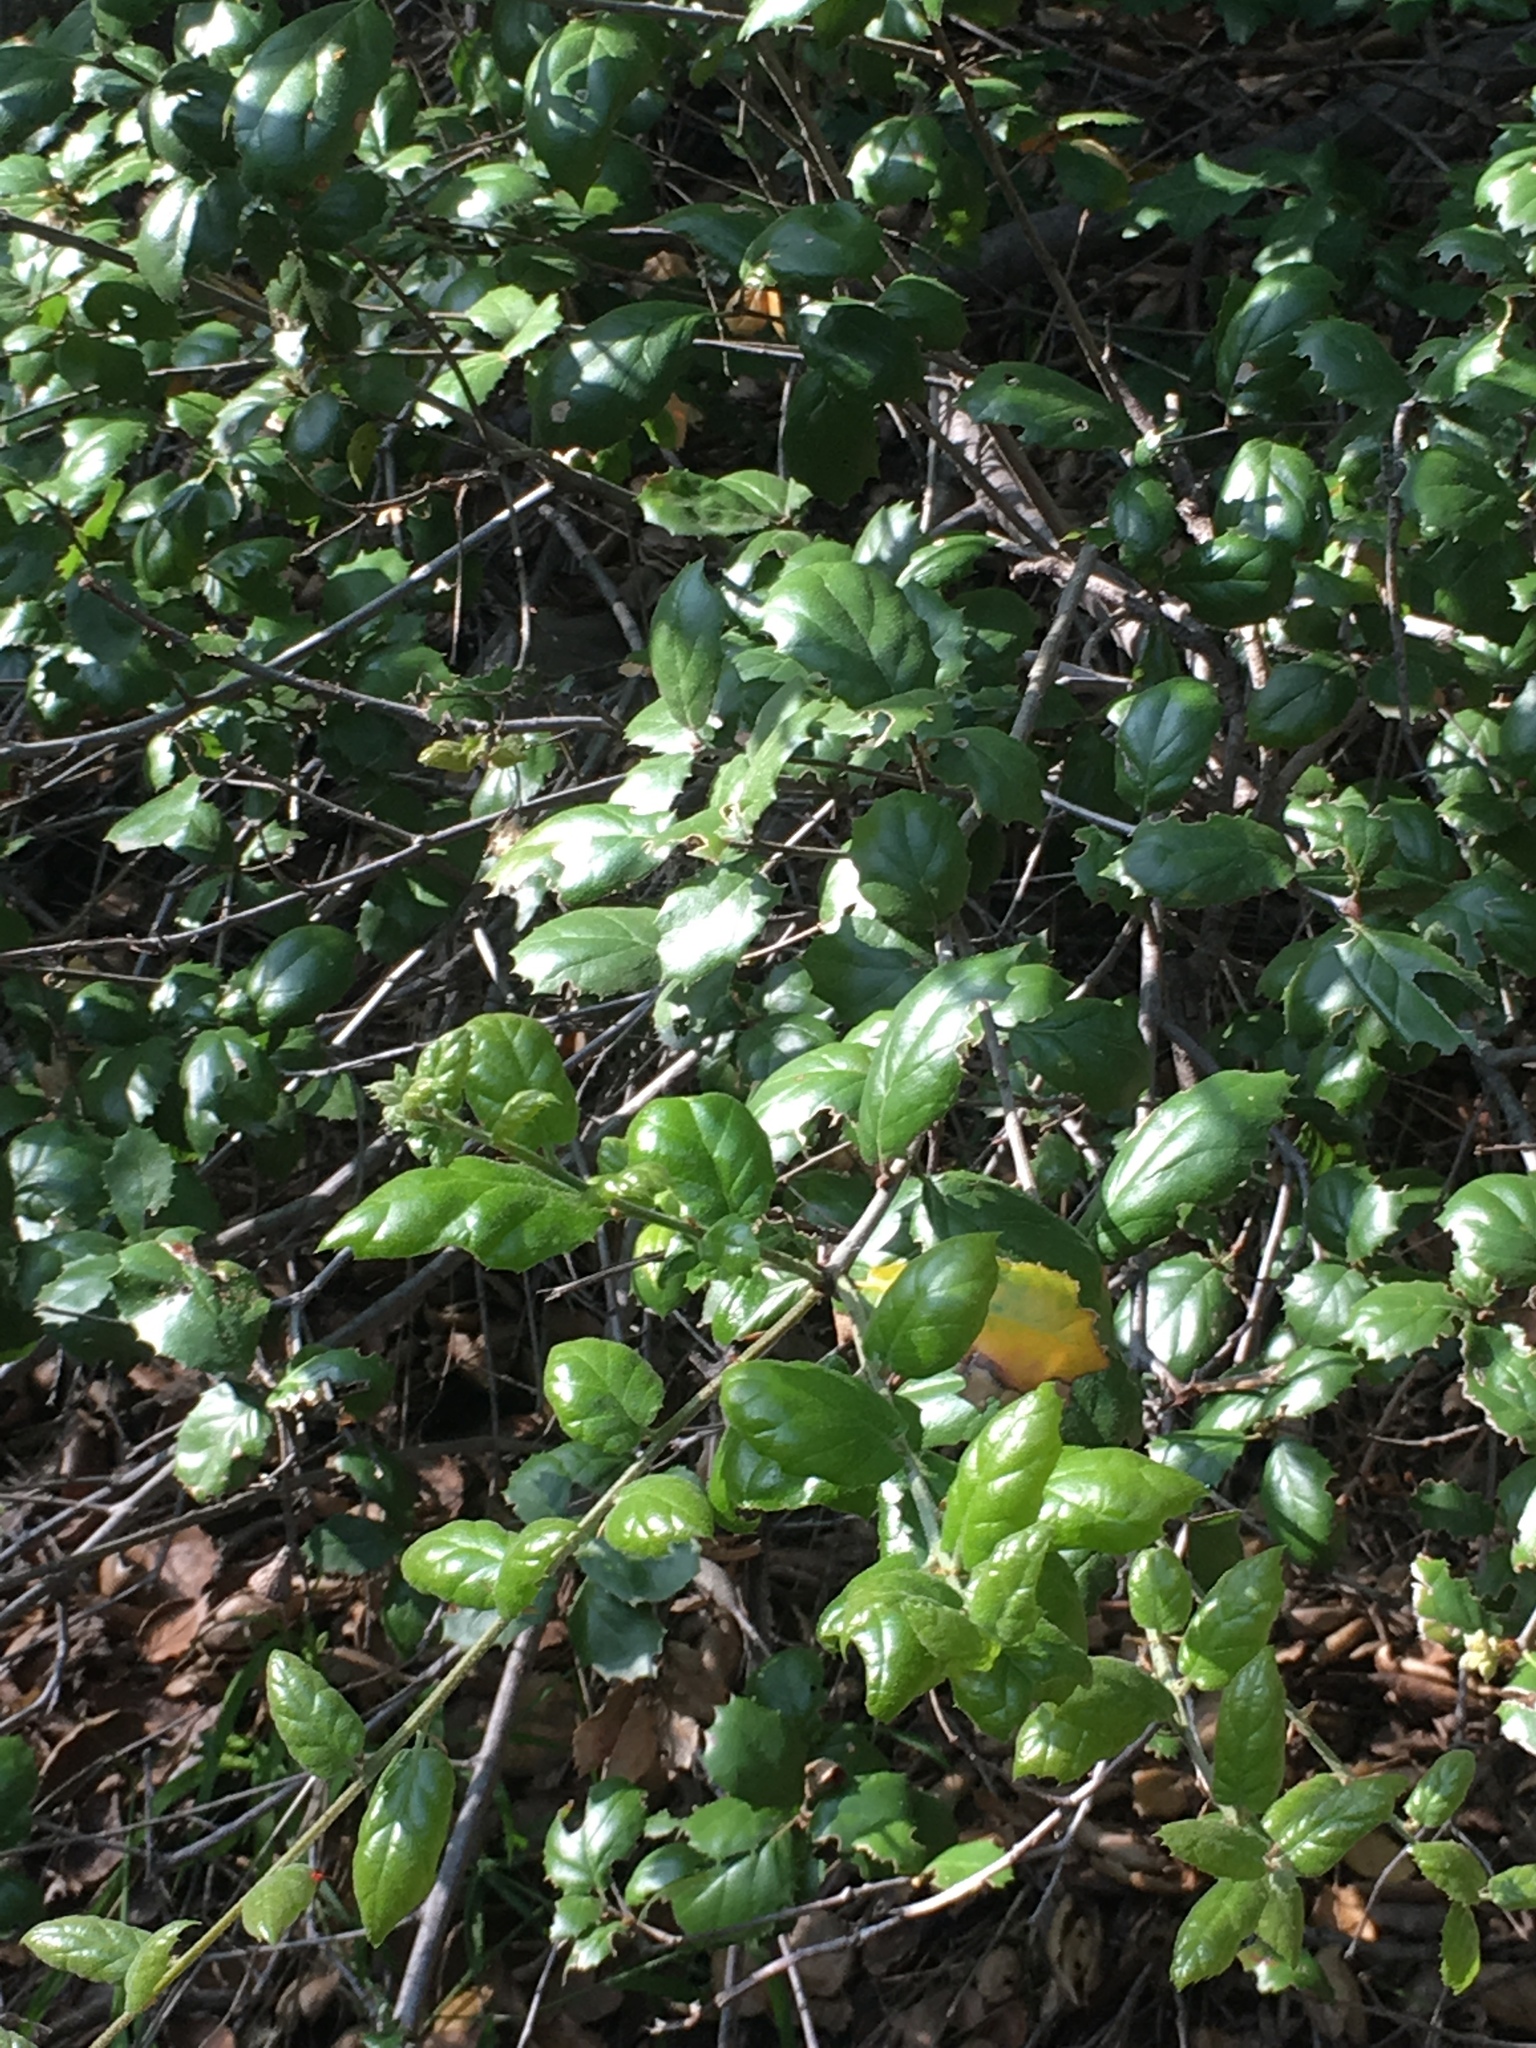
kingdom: Plantae
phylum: Tracheophyta
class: Magnoliopsida
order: Fagales
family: Fagaceae
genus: Quercus
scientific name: Quercus agrifolia
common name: California live oak
